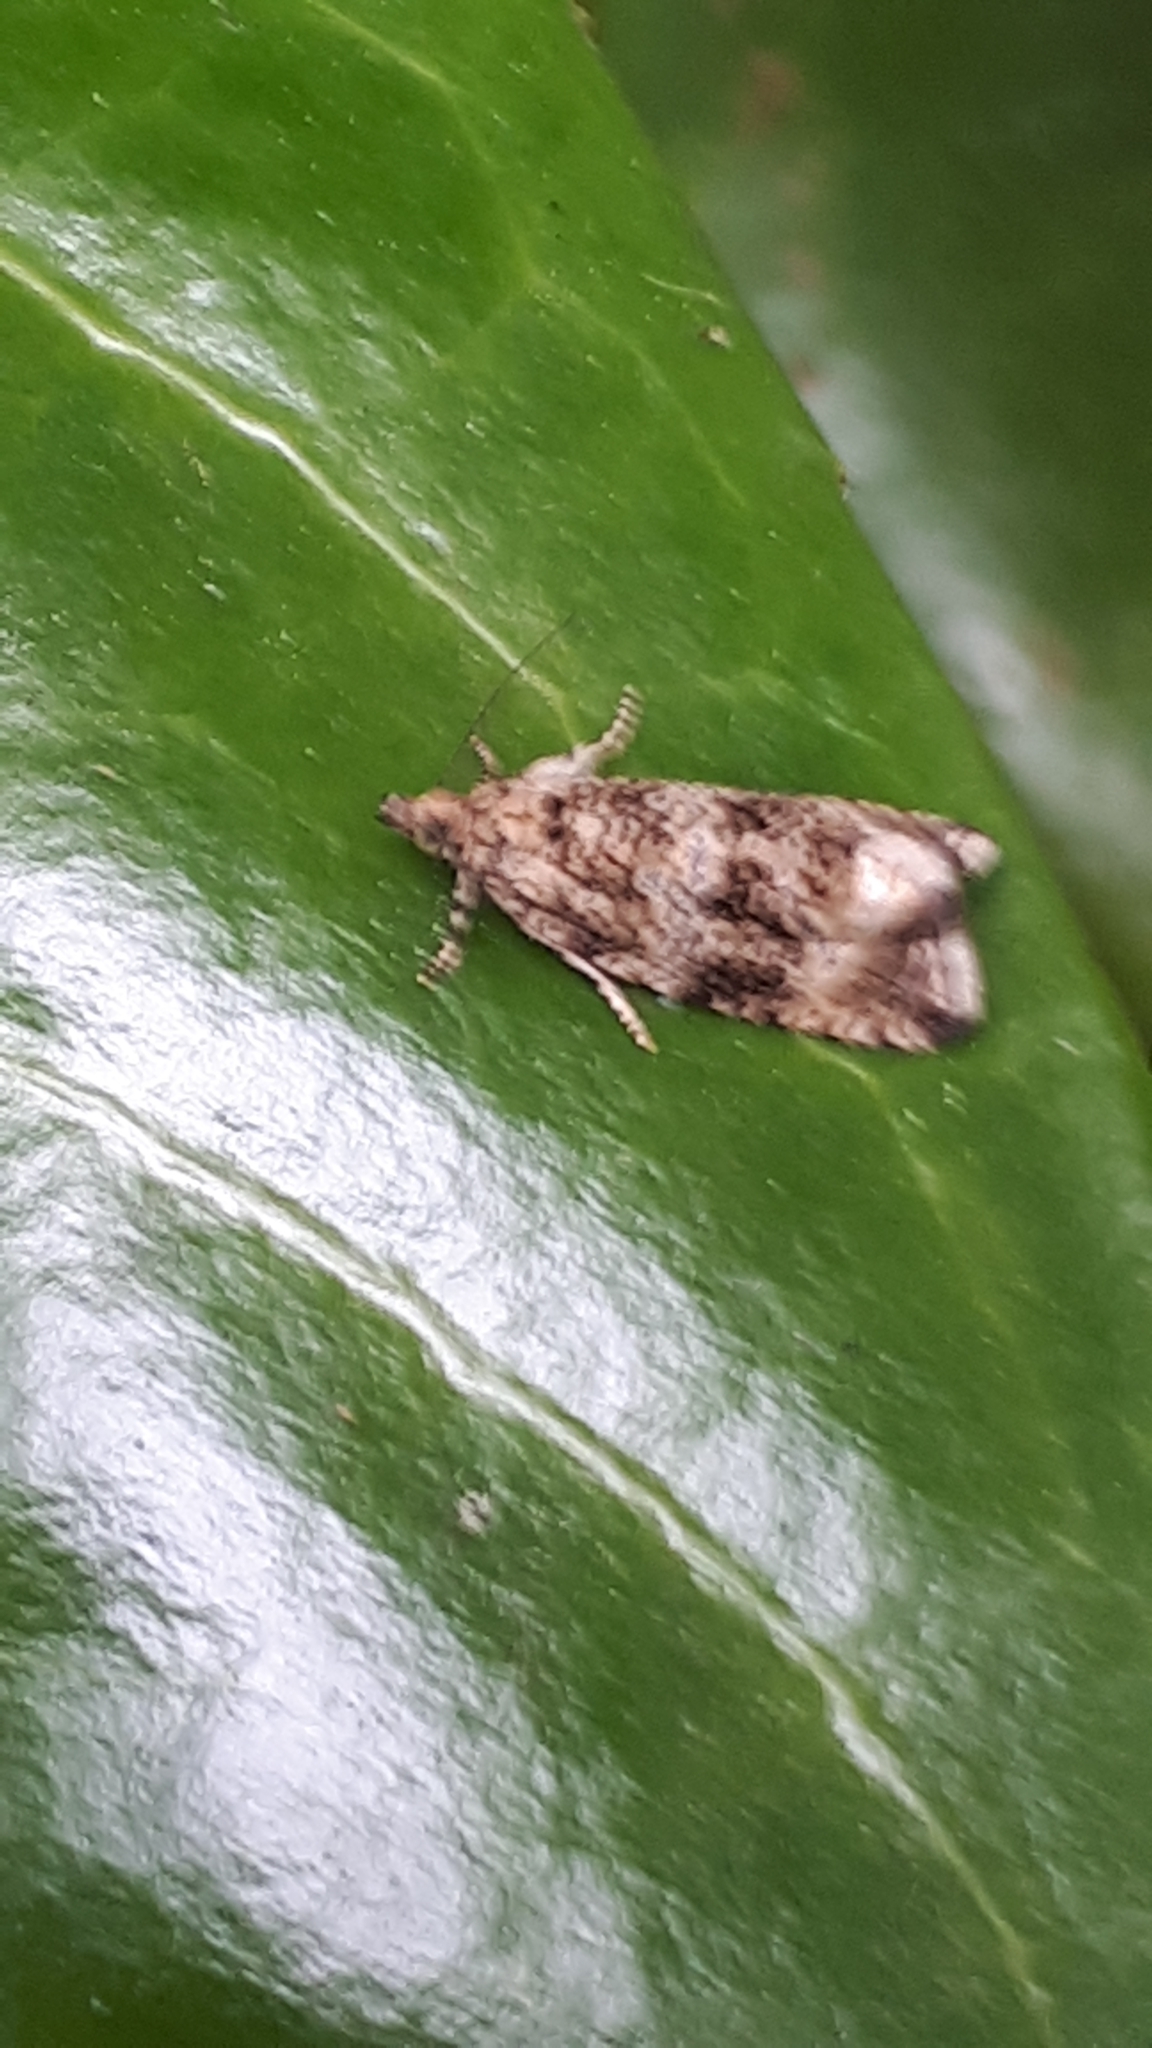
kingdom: Animalia
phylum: Arthropoda
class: Insecta
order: Lepidoptera
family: Tortricidae
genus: Syricoris
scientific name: Syricoris lacunana
